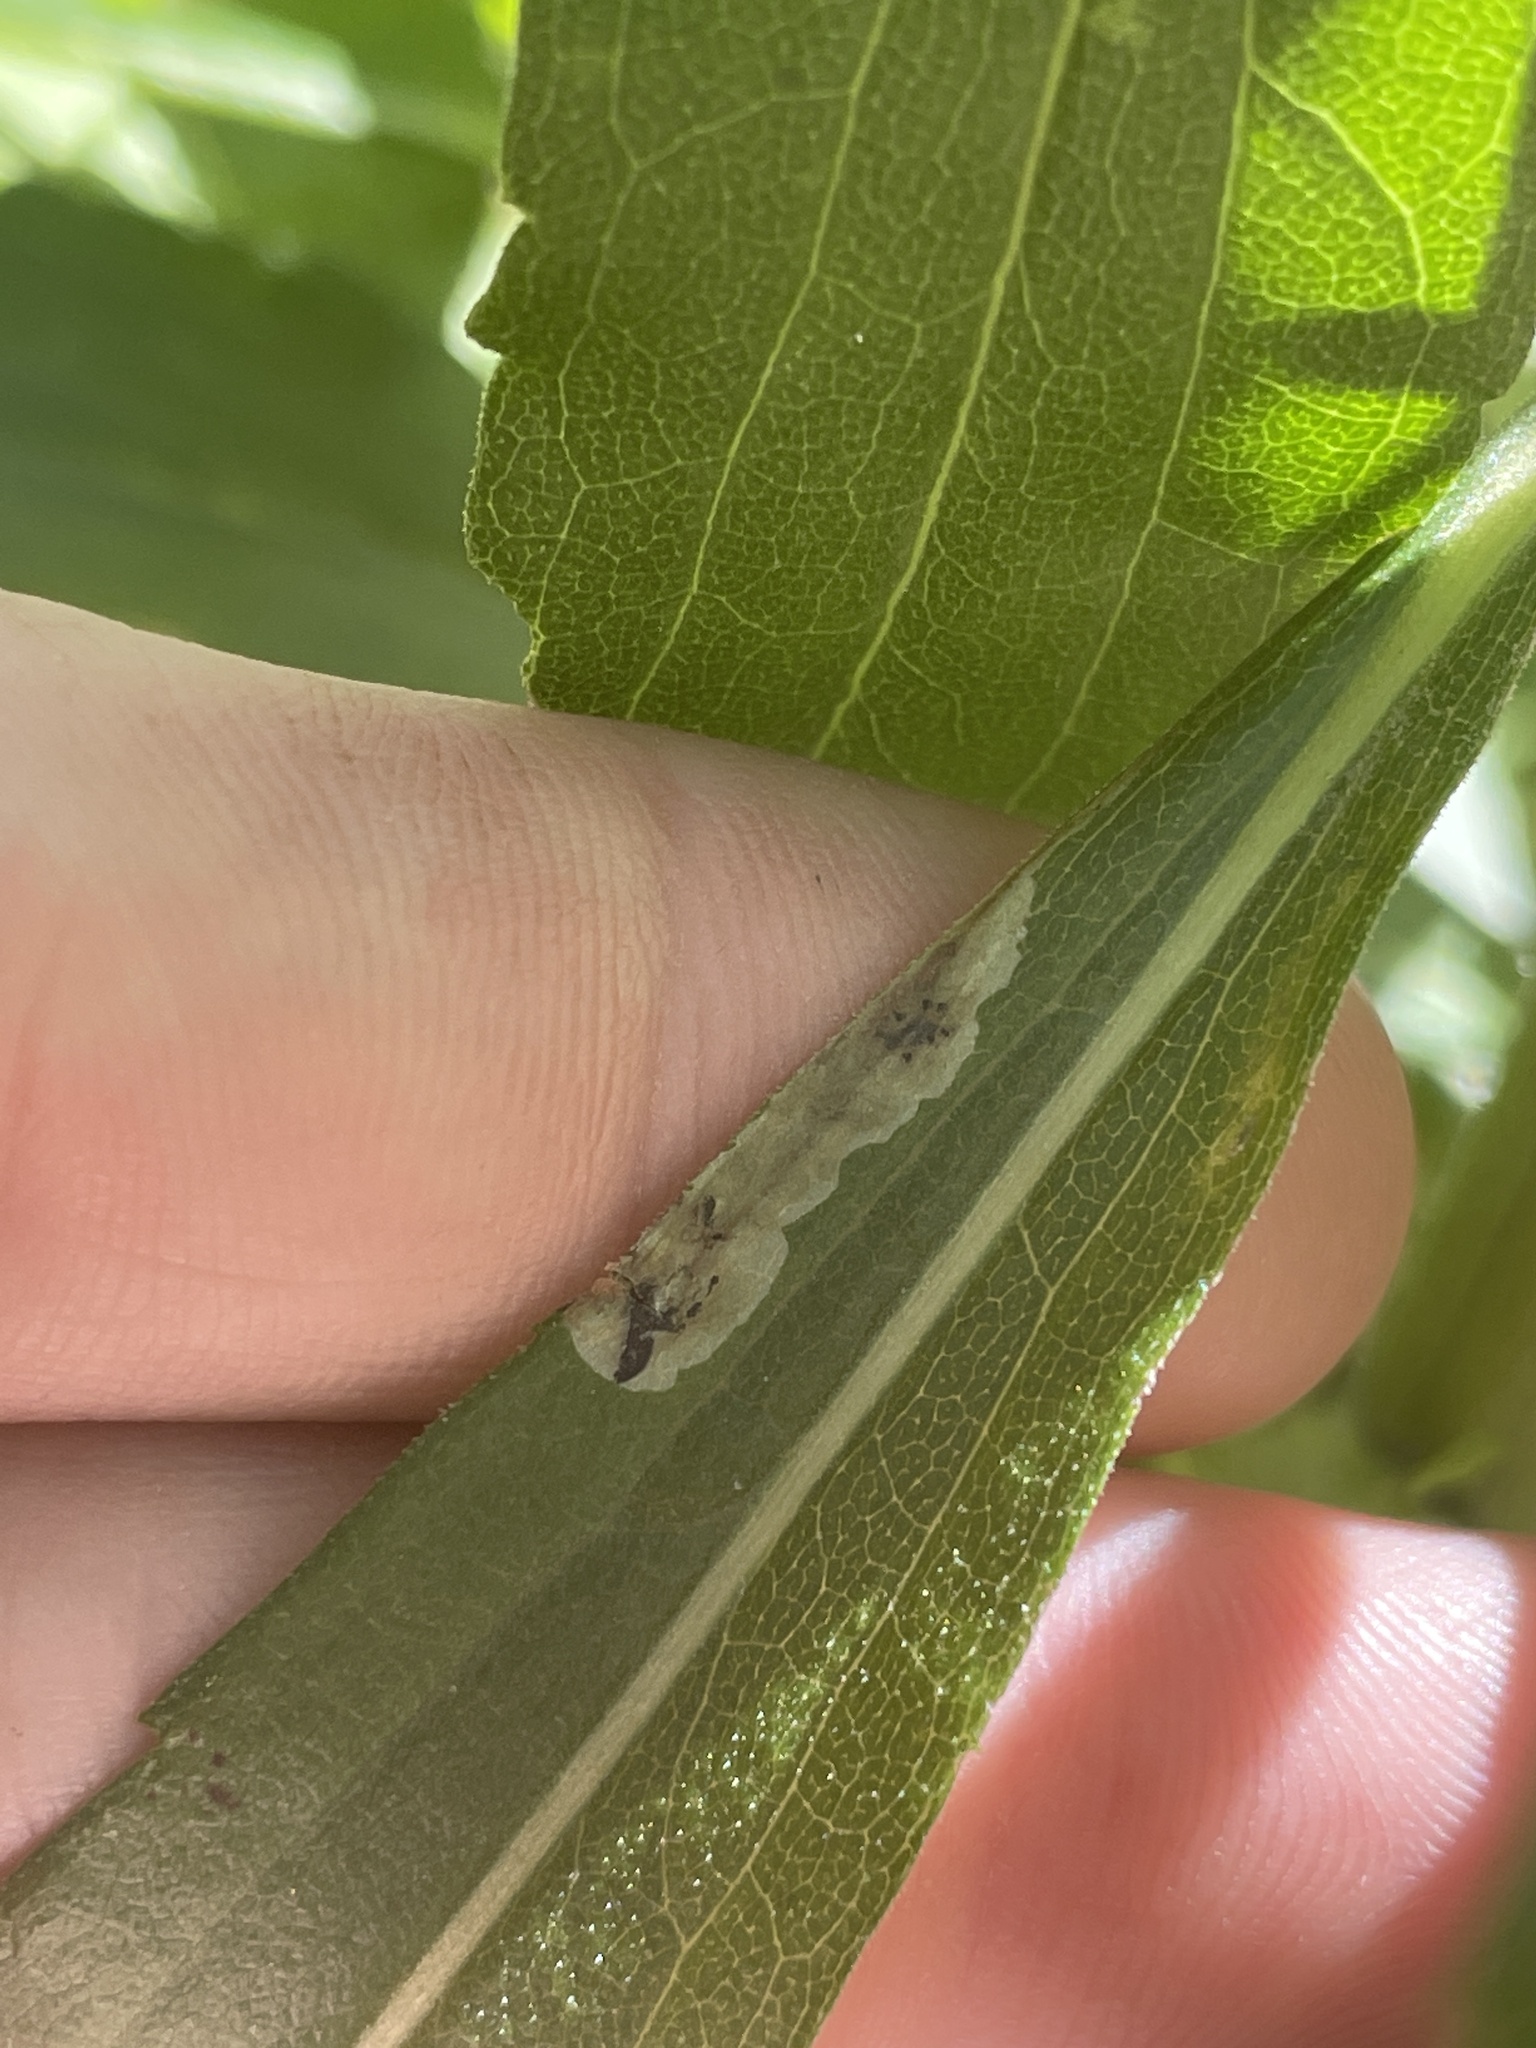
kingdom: Animalia
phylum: Arthropoda
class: Insecta
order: Diptera
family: Agromyzidae
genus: Calycomyza
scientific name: Calycomyza solidaginis
